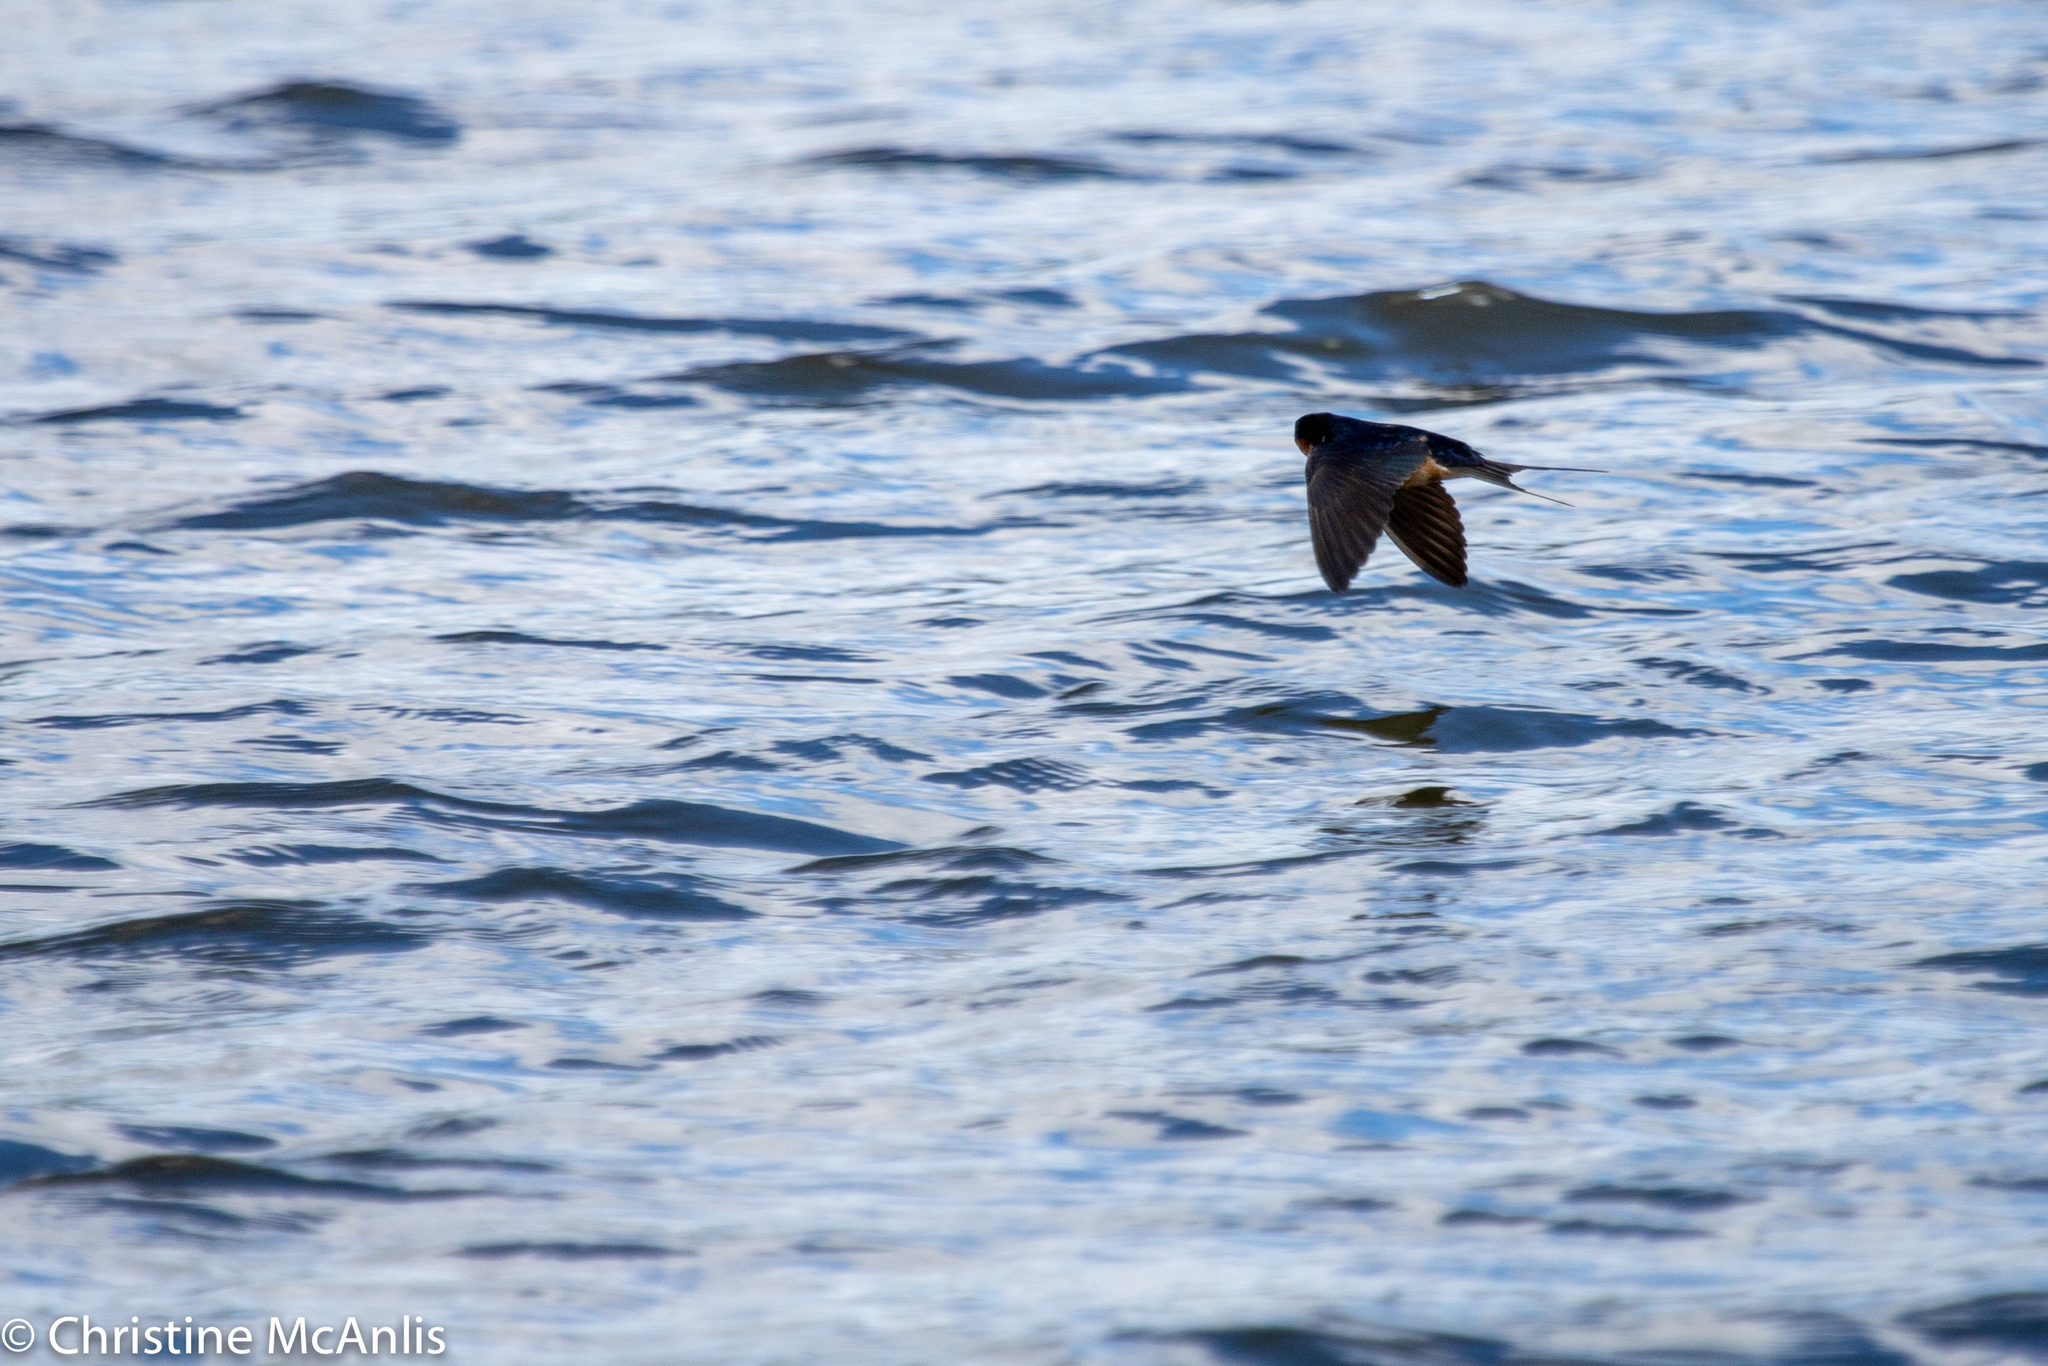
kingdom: Animalia
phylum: Chordata
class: Aves
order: Passeriformes
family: Hirundinidae
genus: Hirundo
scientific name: Hirundo rustica
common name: Barn swallow
